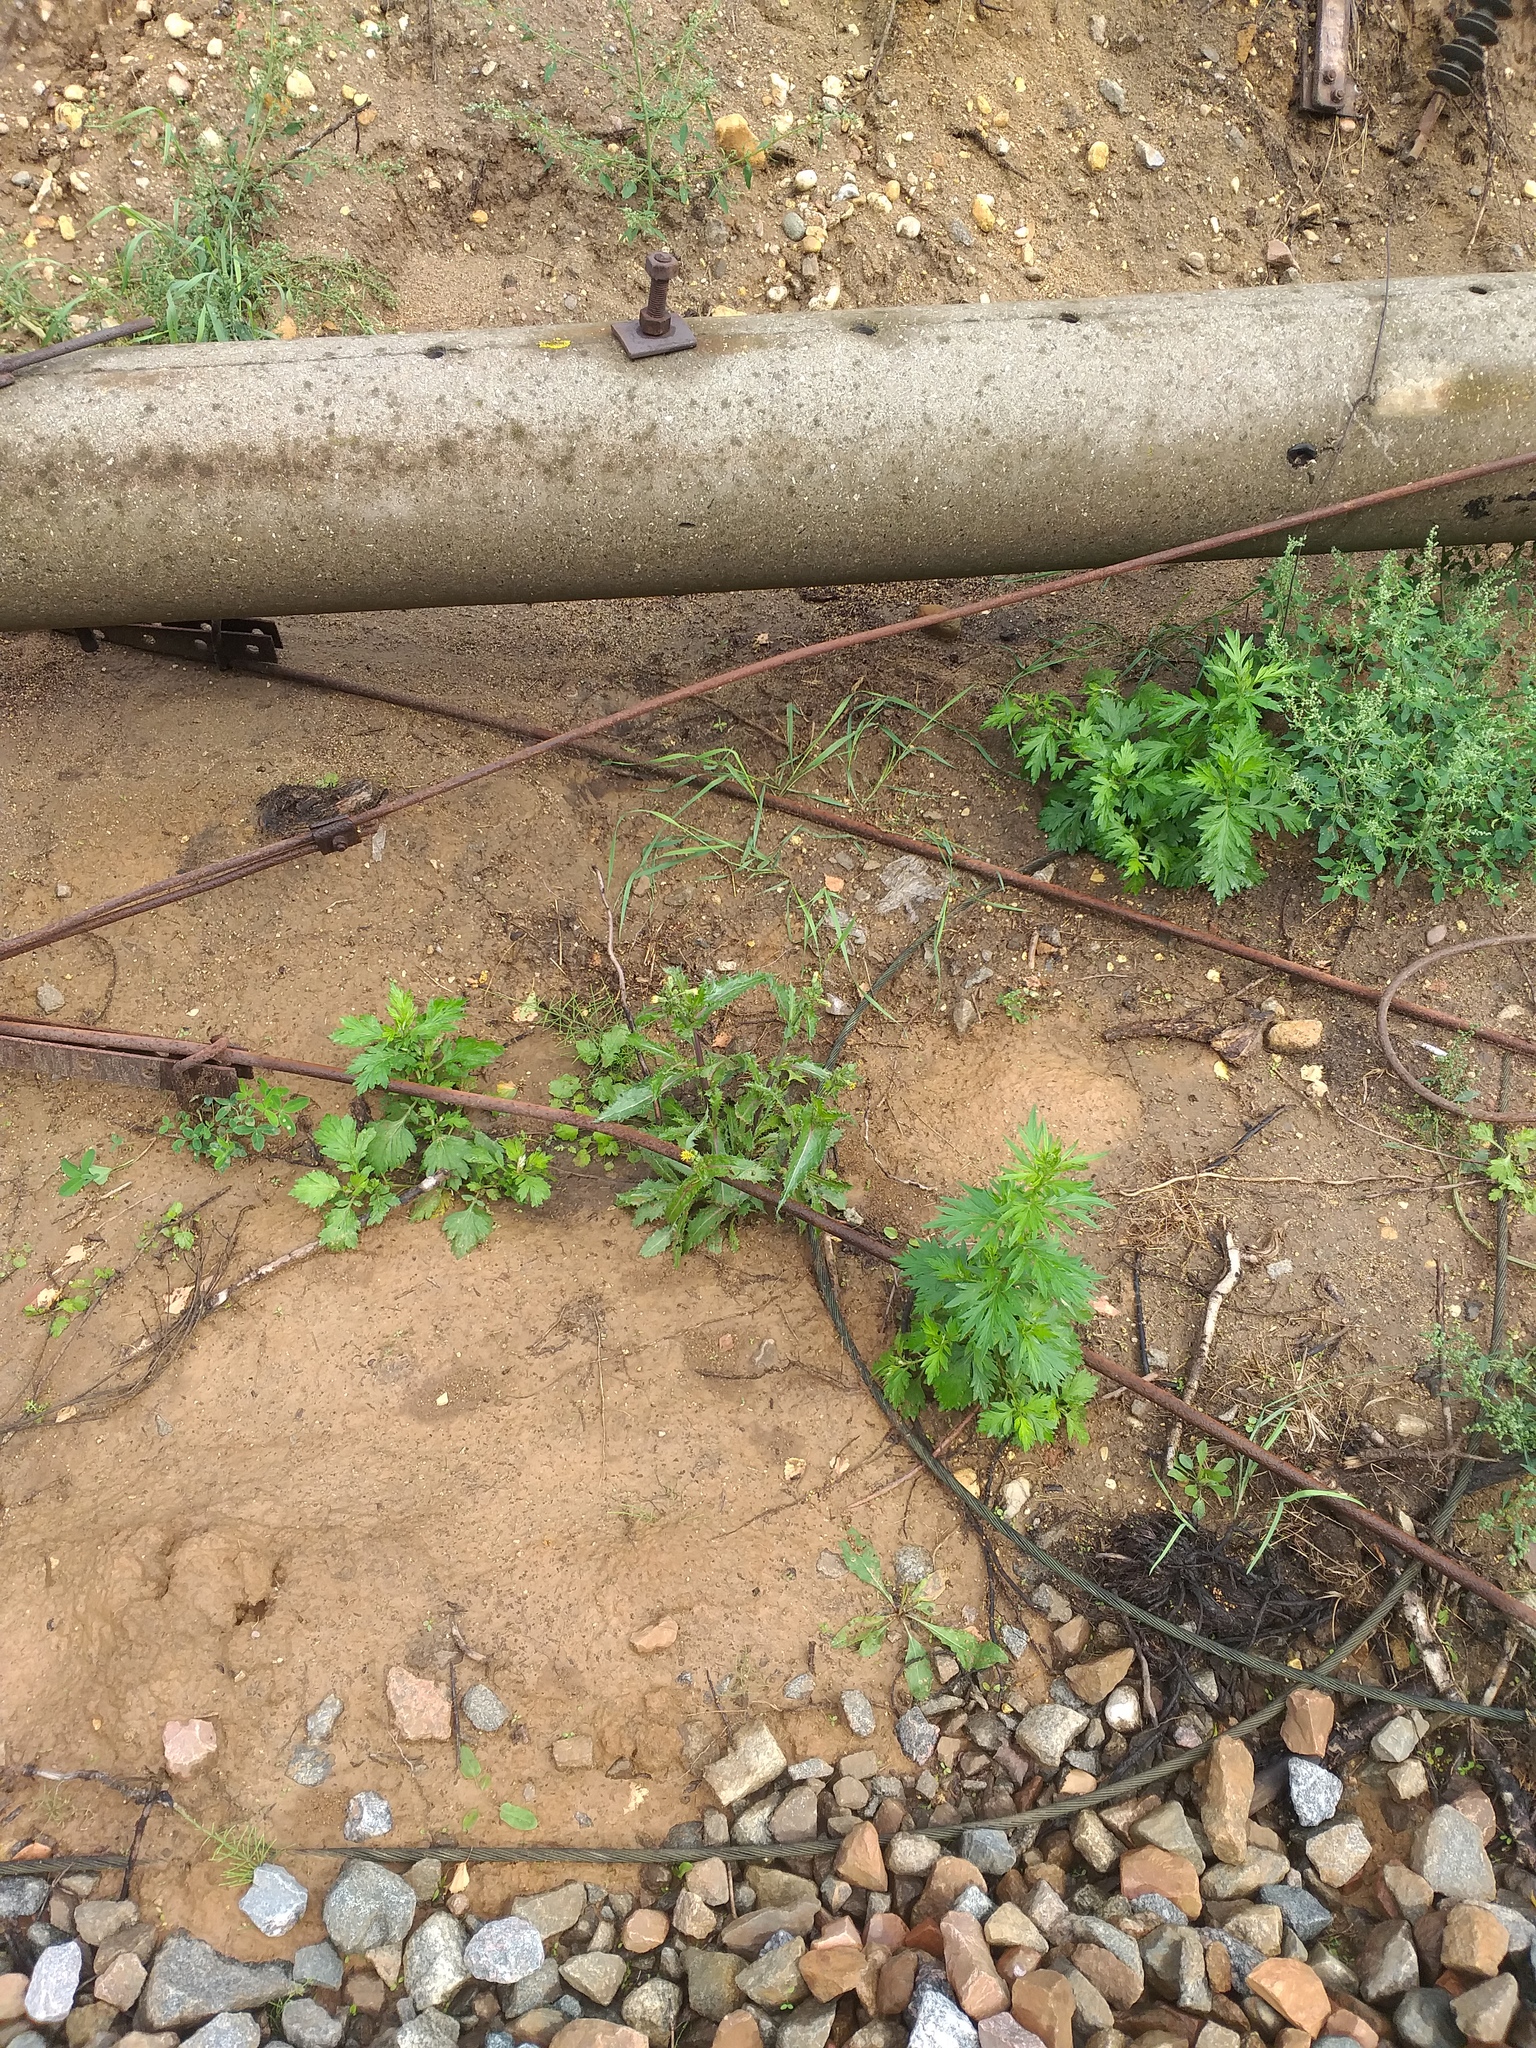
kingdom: Plantae
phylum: Tracheophyta
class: Magnoliopsida
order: Asterales
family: Asteraceae
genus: Sonchus
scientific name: Sonchus asper
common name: Prickly sow-thistle
